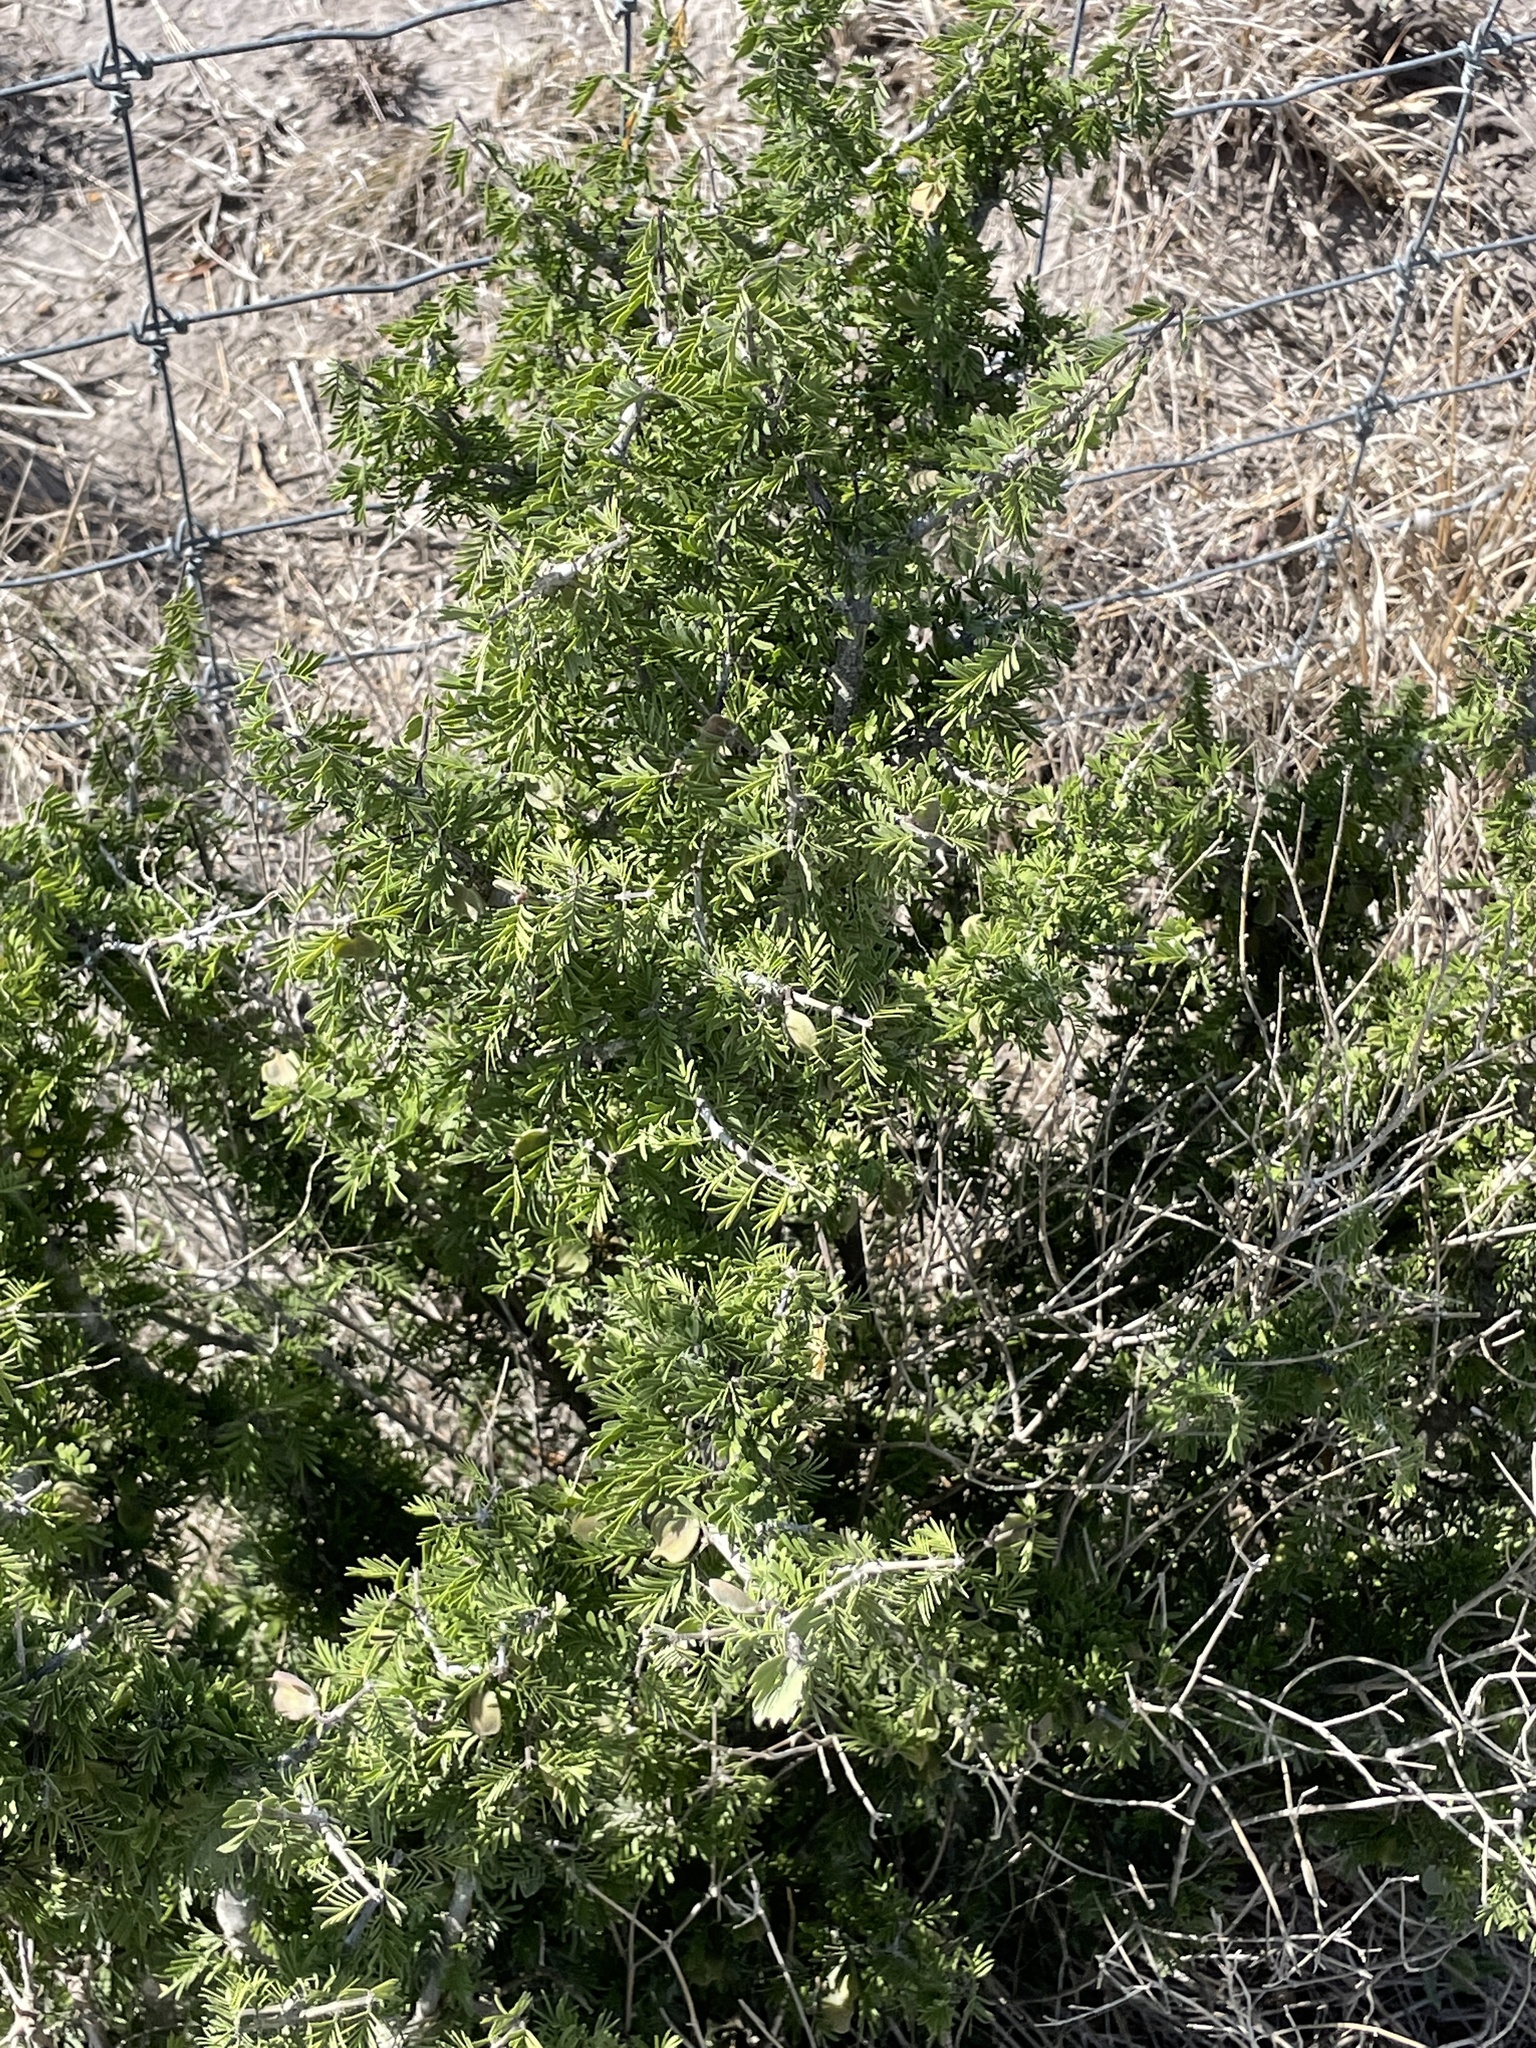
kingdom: Plantae
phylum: Tracheophyta
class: Magnoliopsida
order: Zygophyllales
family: Zygophyllaceae
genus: Porlieria
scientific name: Porlieria angustifolia
